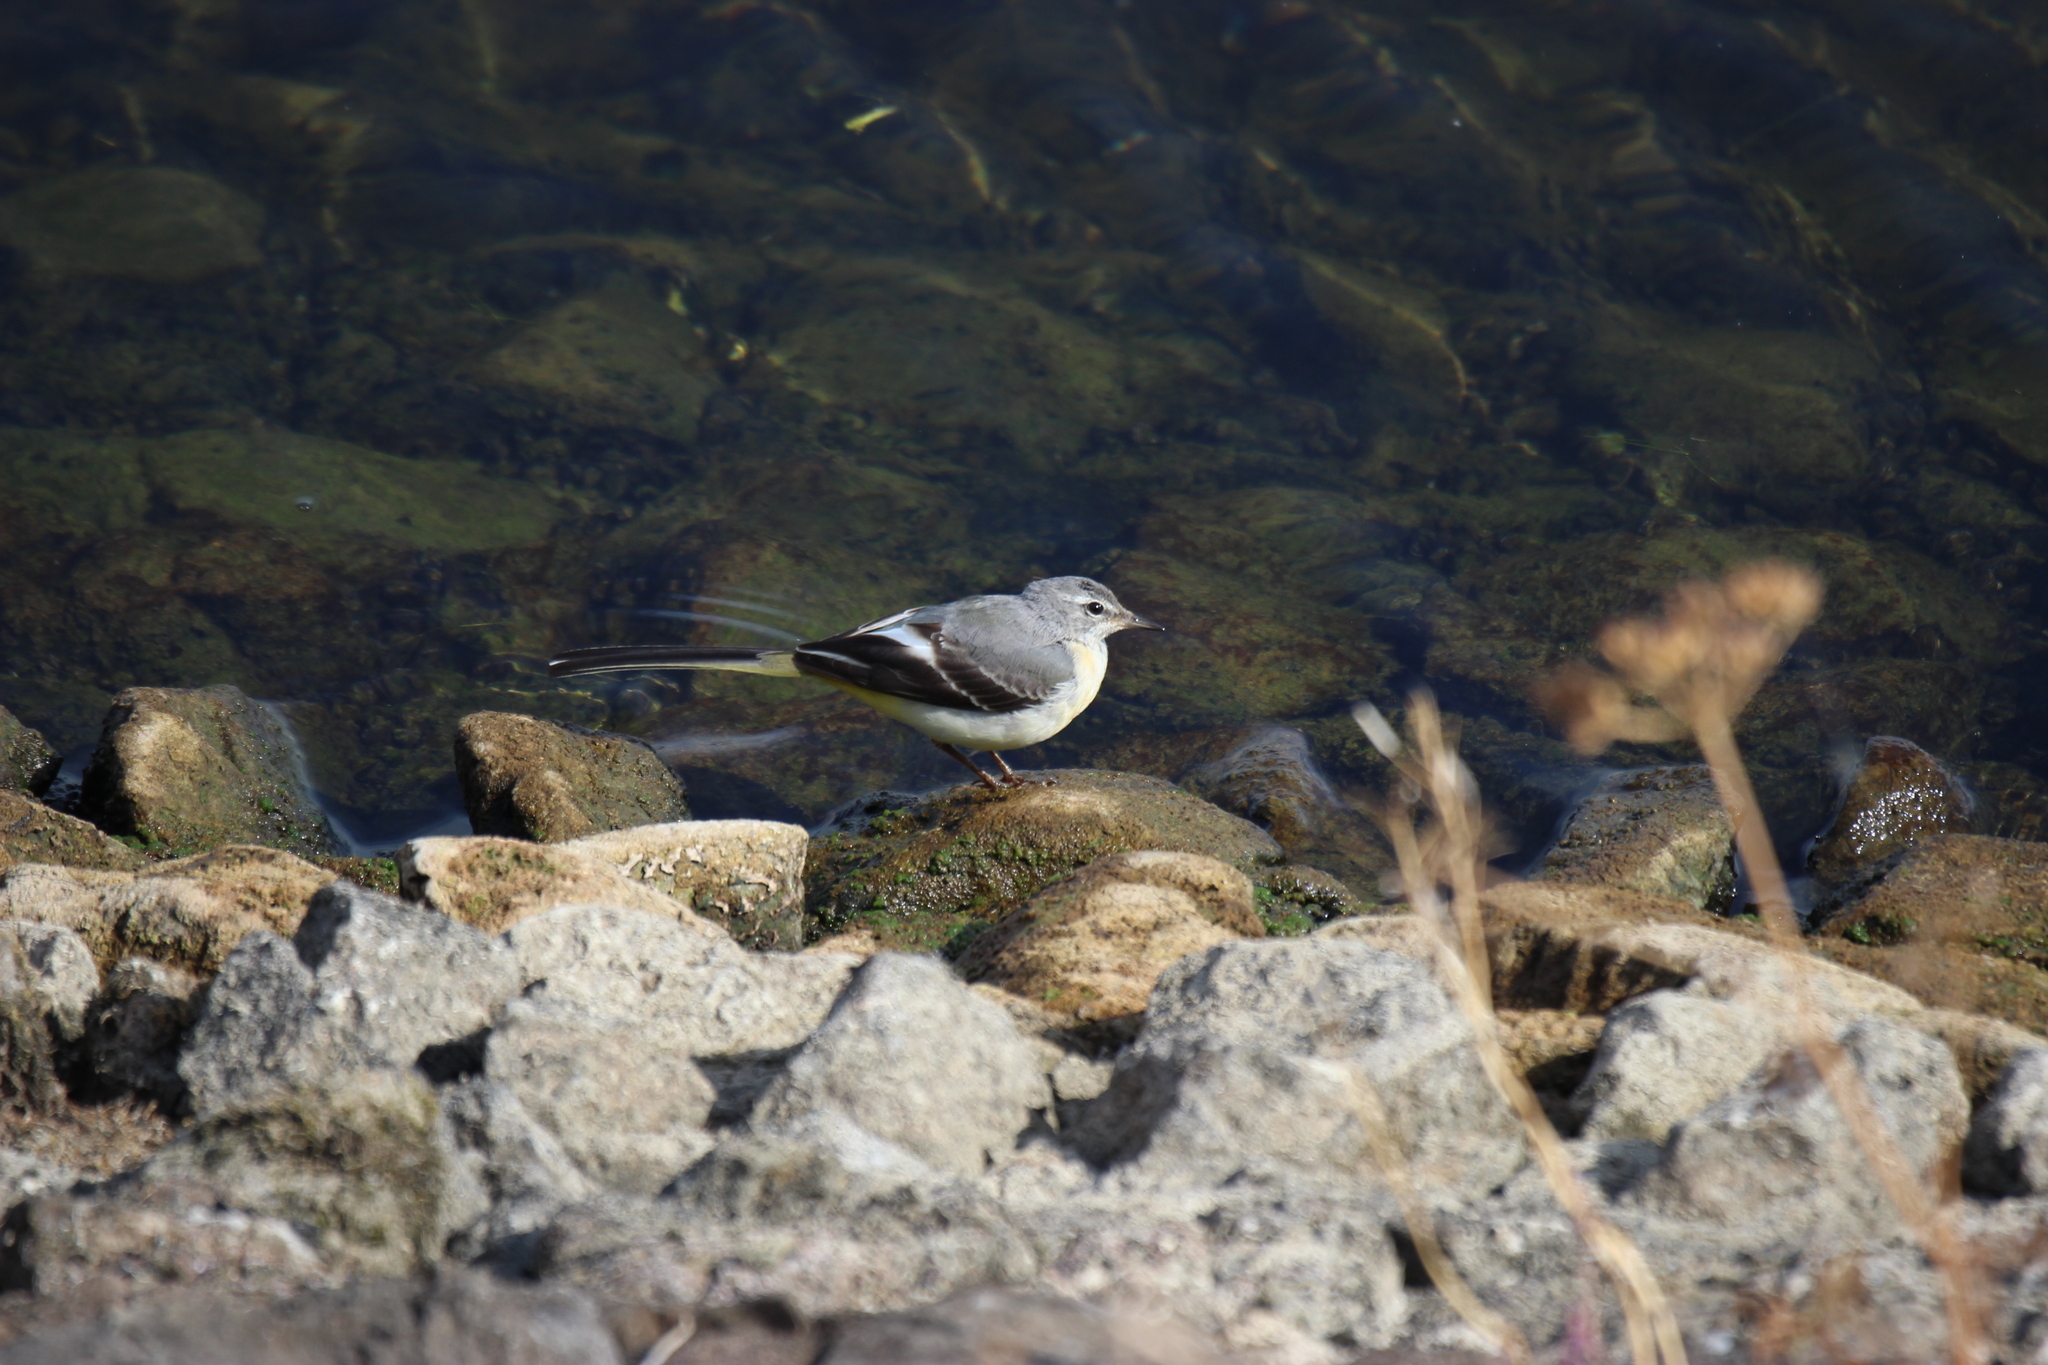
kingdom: Animalia
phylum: Chordata
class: Aves
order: Passeriformes
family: Motacillidae
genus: Motacilla
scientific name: Motacilla cinerea
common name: Grey wagtail
